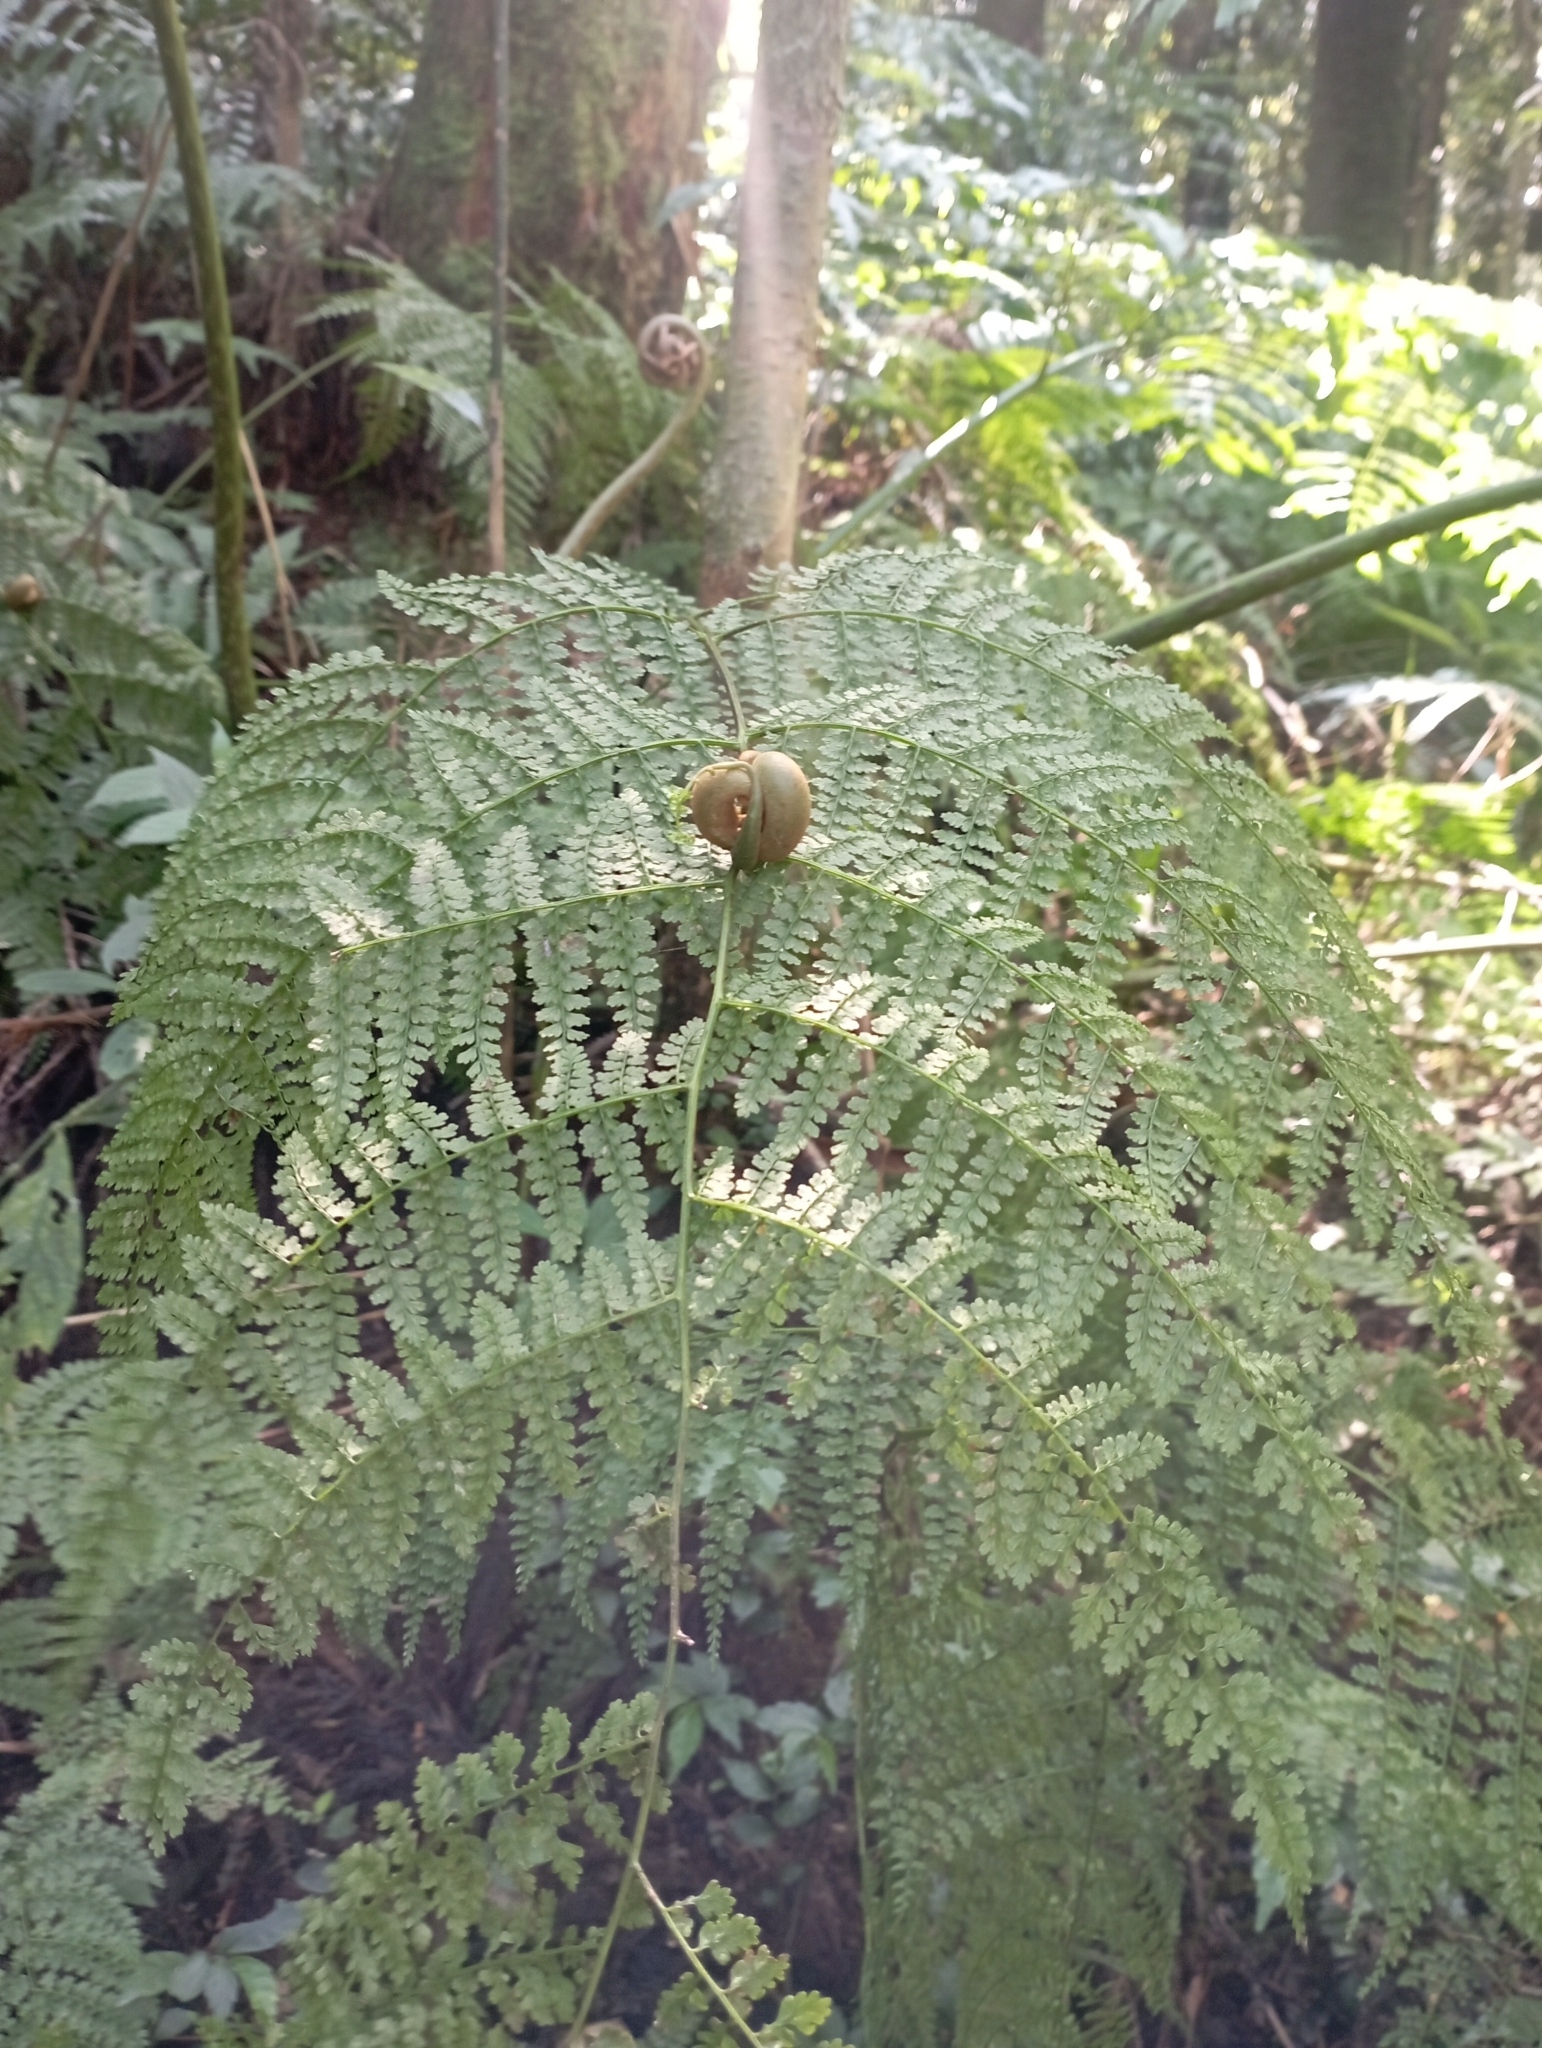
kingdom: Plantae
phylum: Tracheophyta
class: Polypodiopsida
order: Polypodiales
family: Dennstaedtiaceae
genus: Monachosorum
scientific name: Monachosorum henryi
